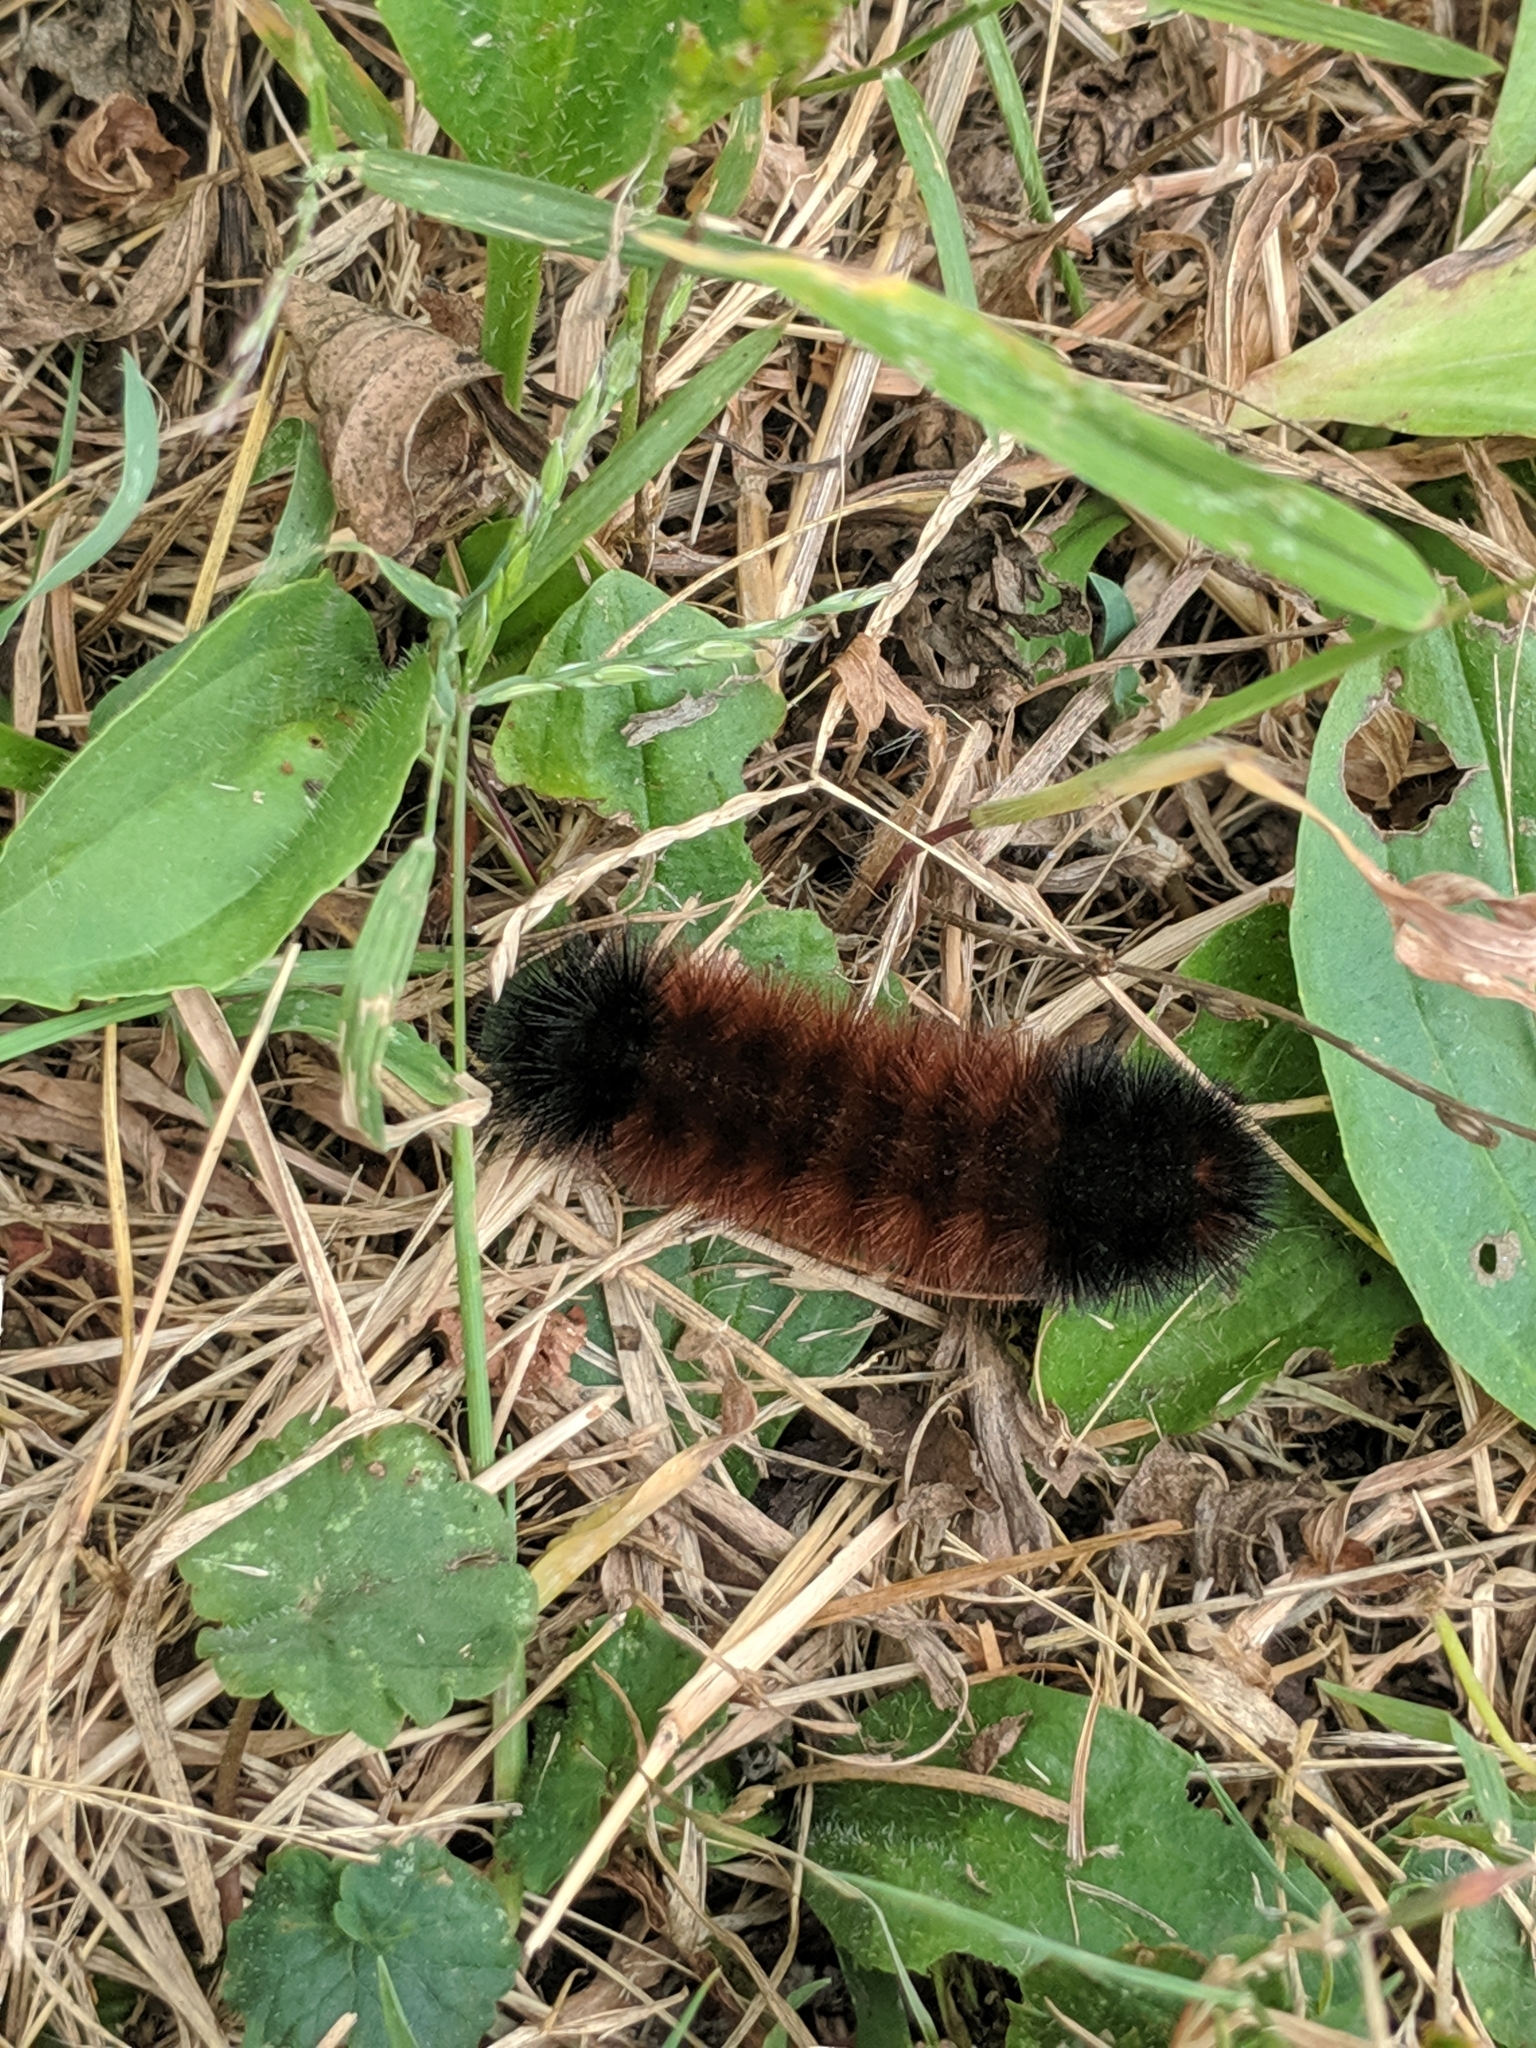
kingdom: Animalia
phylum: Arthropoda
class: Insecta
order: Lepidoptera
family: Erebidae
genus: Pyrrharctia
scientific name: Pyrrharctia isabella
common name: Isabella tiger moth
